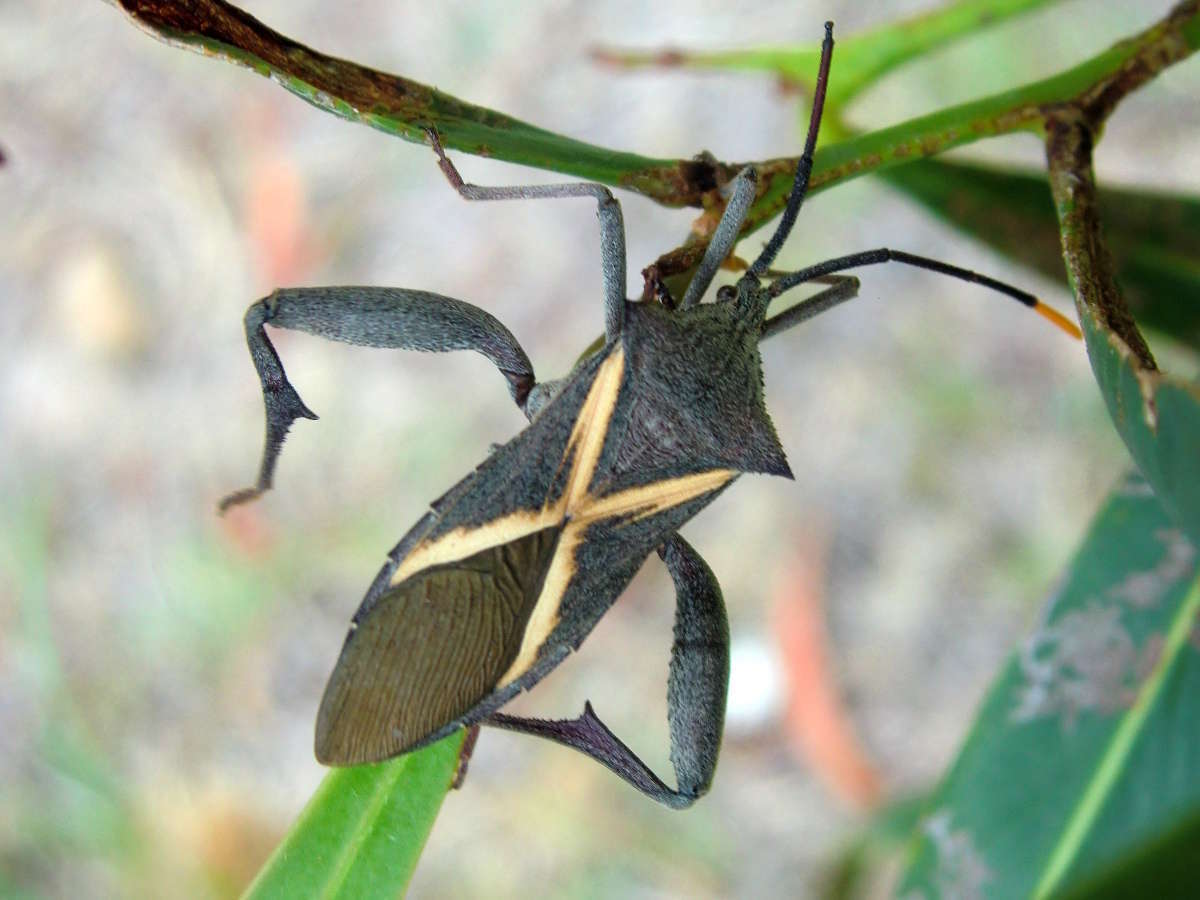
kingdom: Animalia
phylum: Arthropoda
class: Insecta
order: Hemiptera
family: Coreidae
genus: Mictis
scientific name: Mictis profana
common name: Crusader bug
